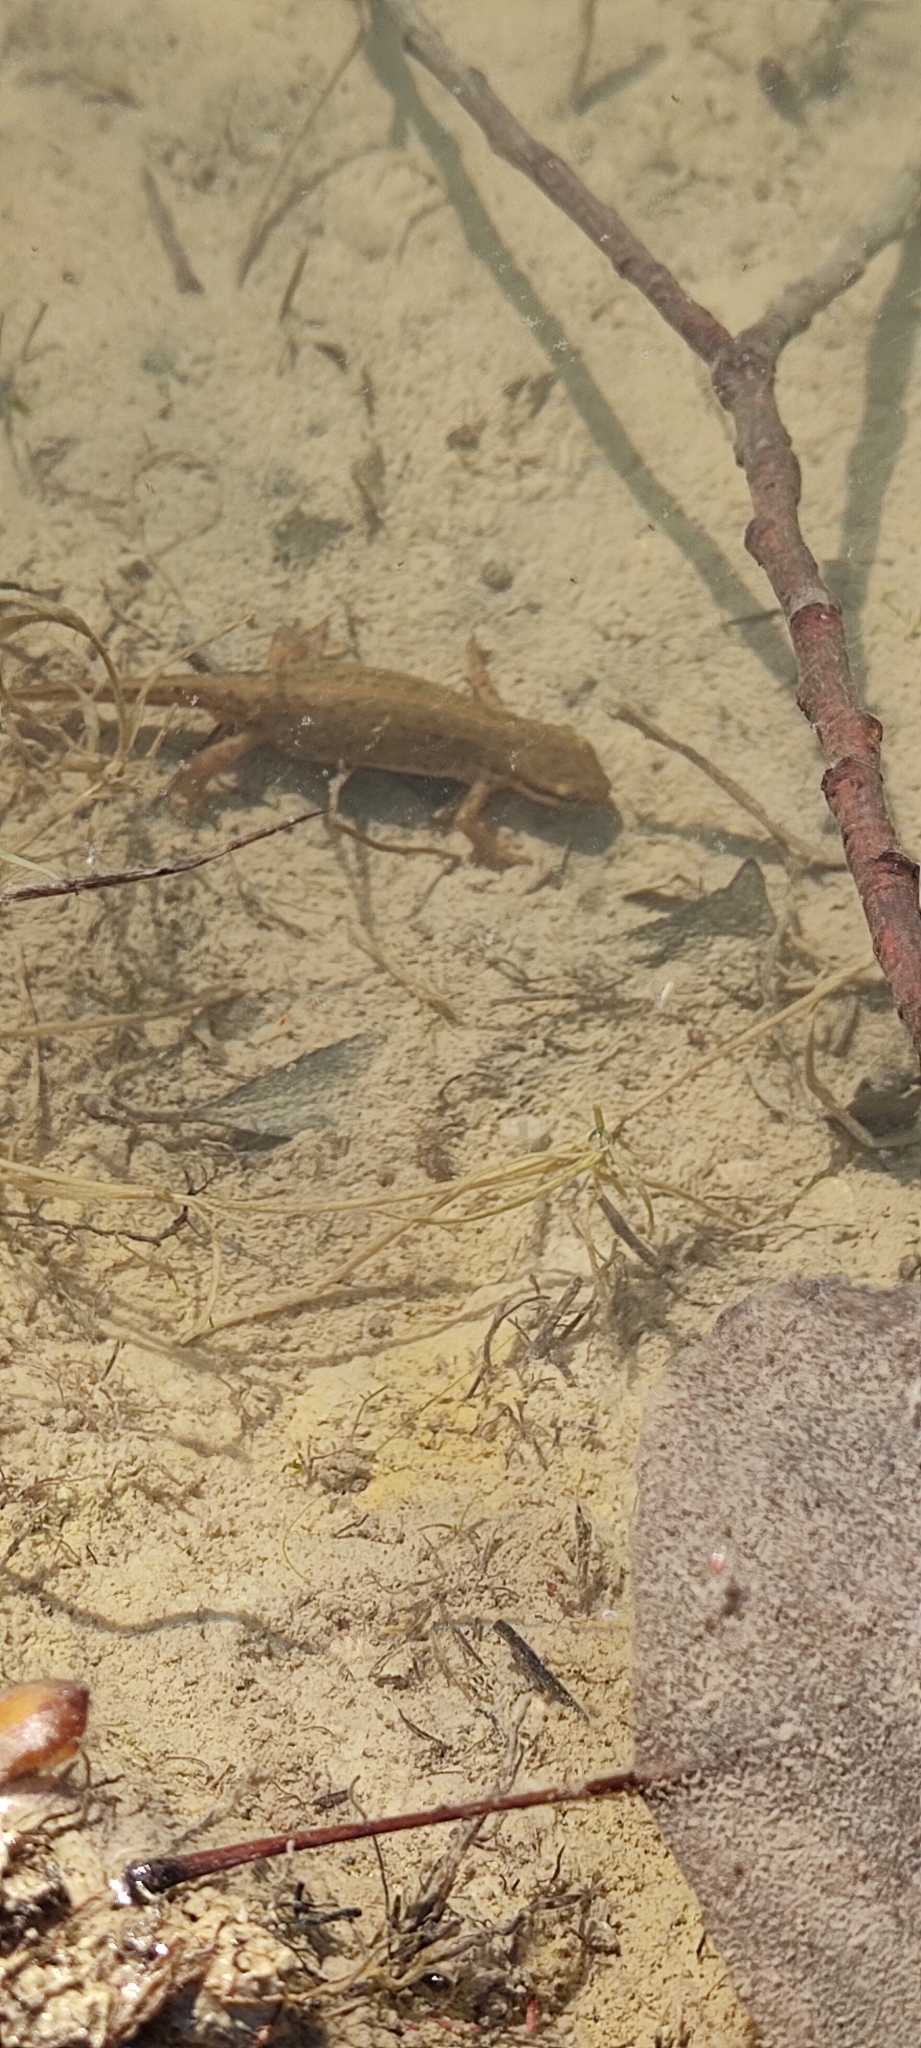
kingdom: Animalia
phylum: Chordata
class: Amphibia
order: Caudata
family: Salamandridae
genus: Lissotriton
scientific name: Lissotriton helveticus
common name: Palmate newt
